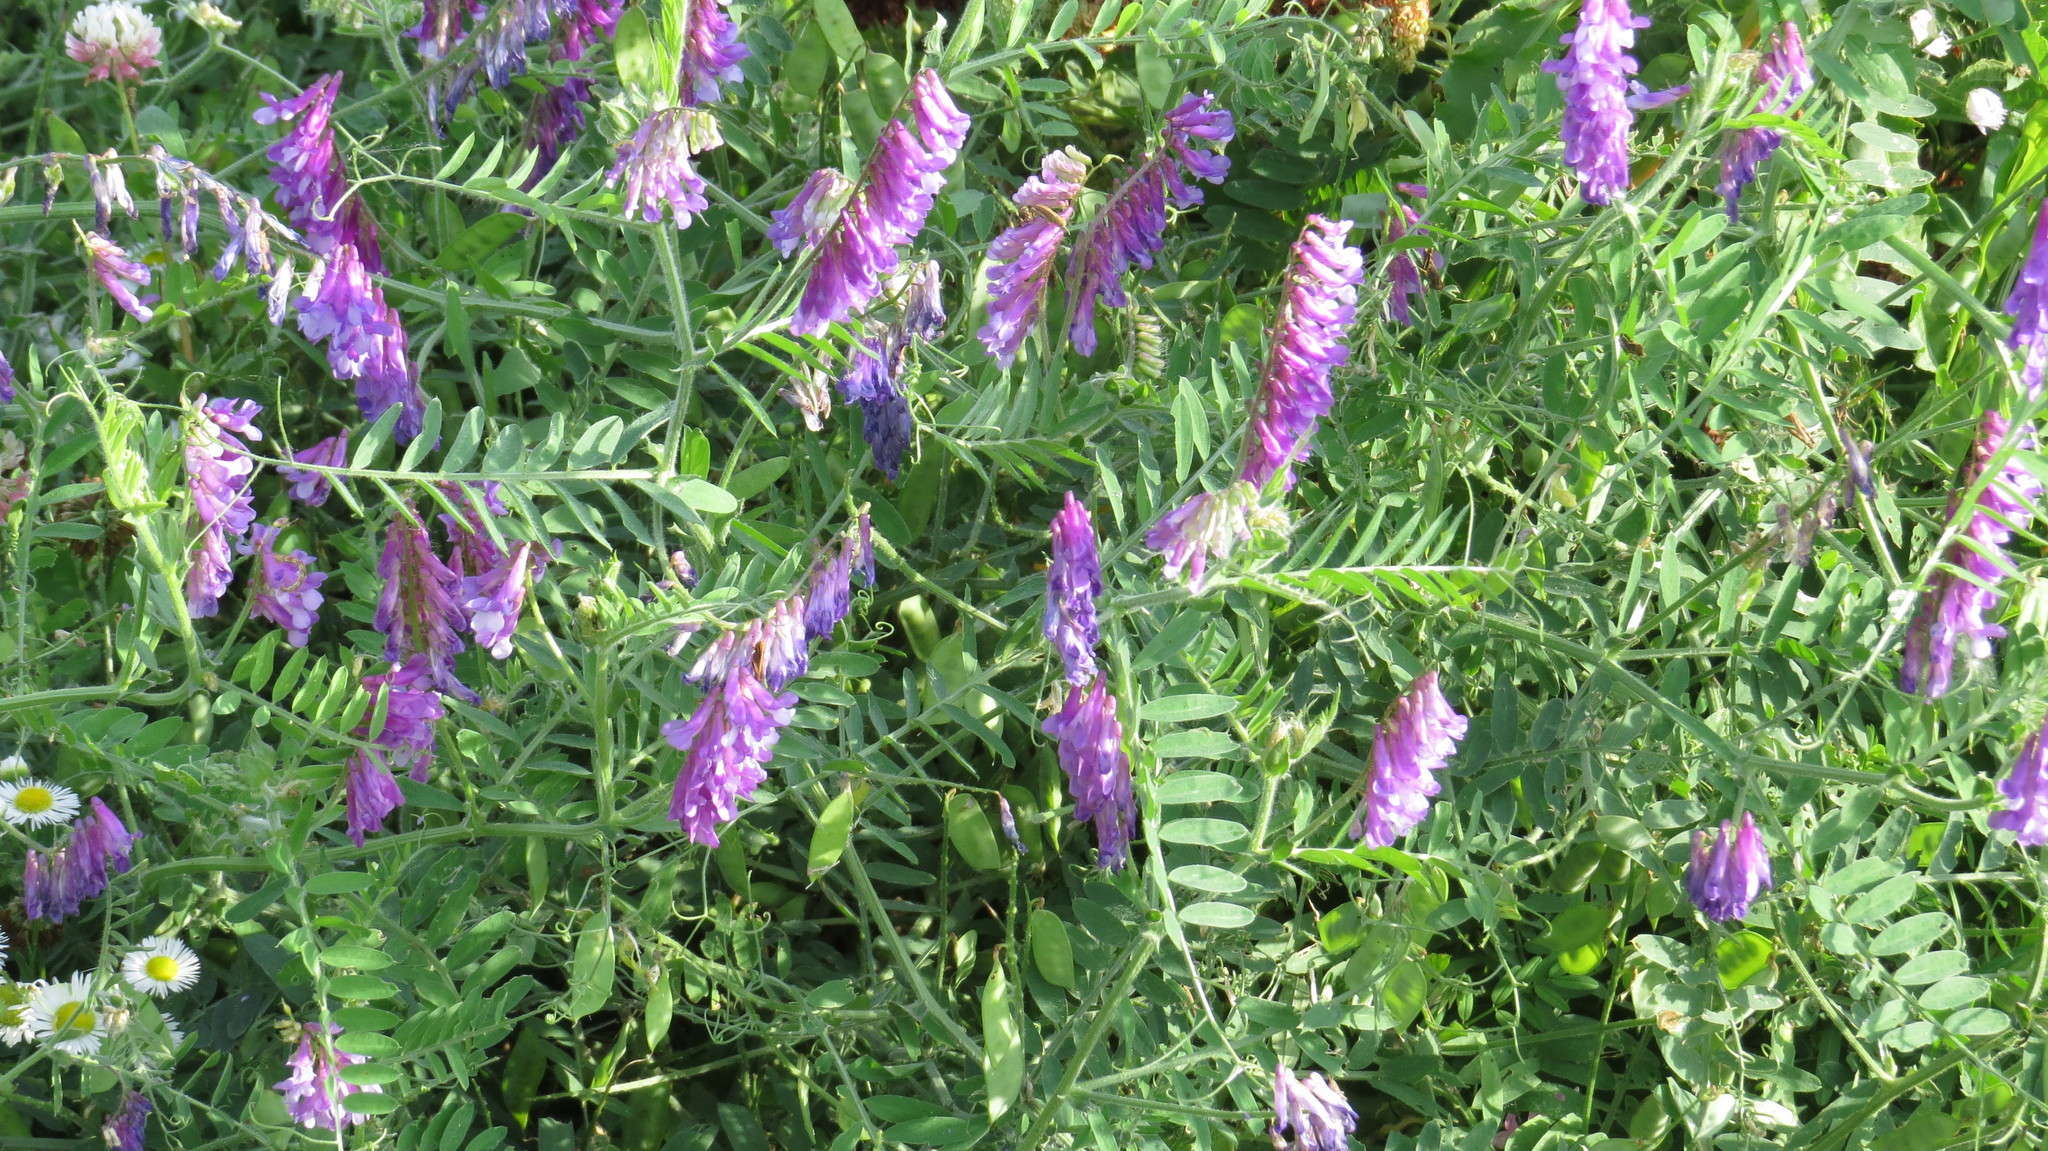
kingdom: Plantae
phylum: Tracheophyta
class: Magnoliopsida
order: Fabales
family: Fabaceae
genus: Vicia
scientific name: Vicia villosa
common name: Fodder vetch
